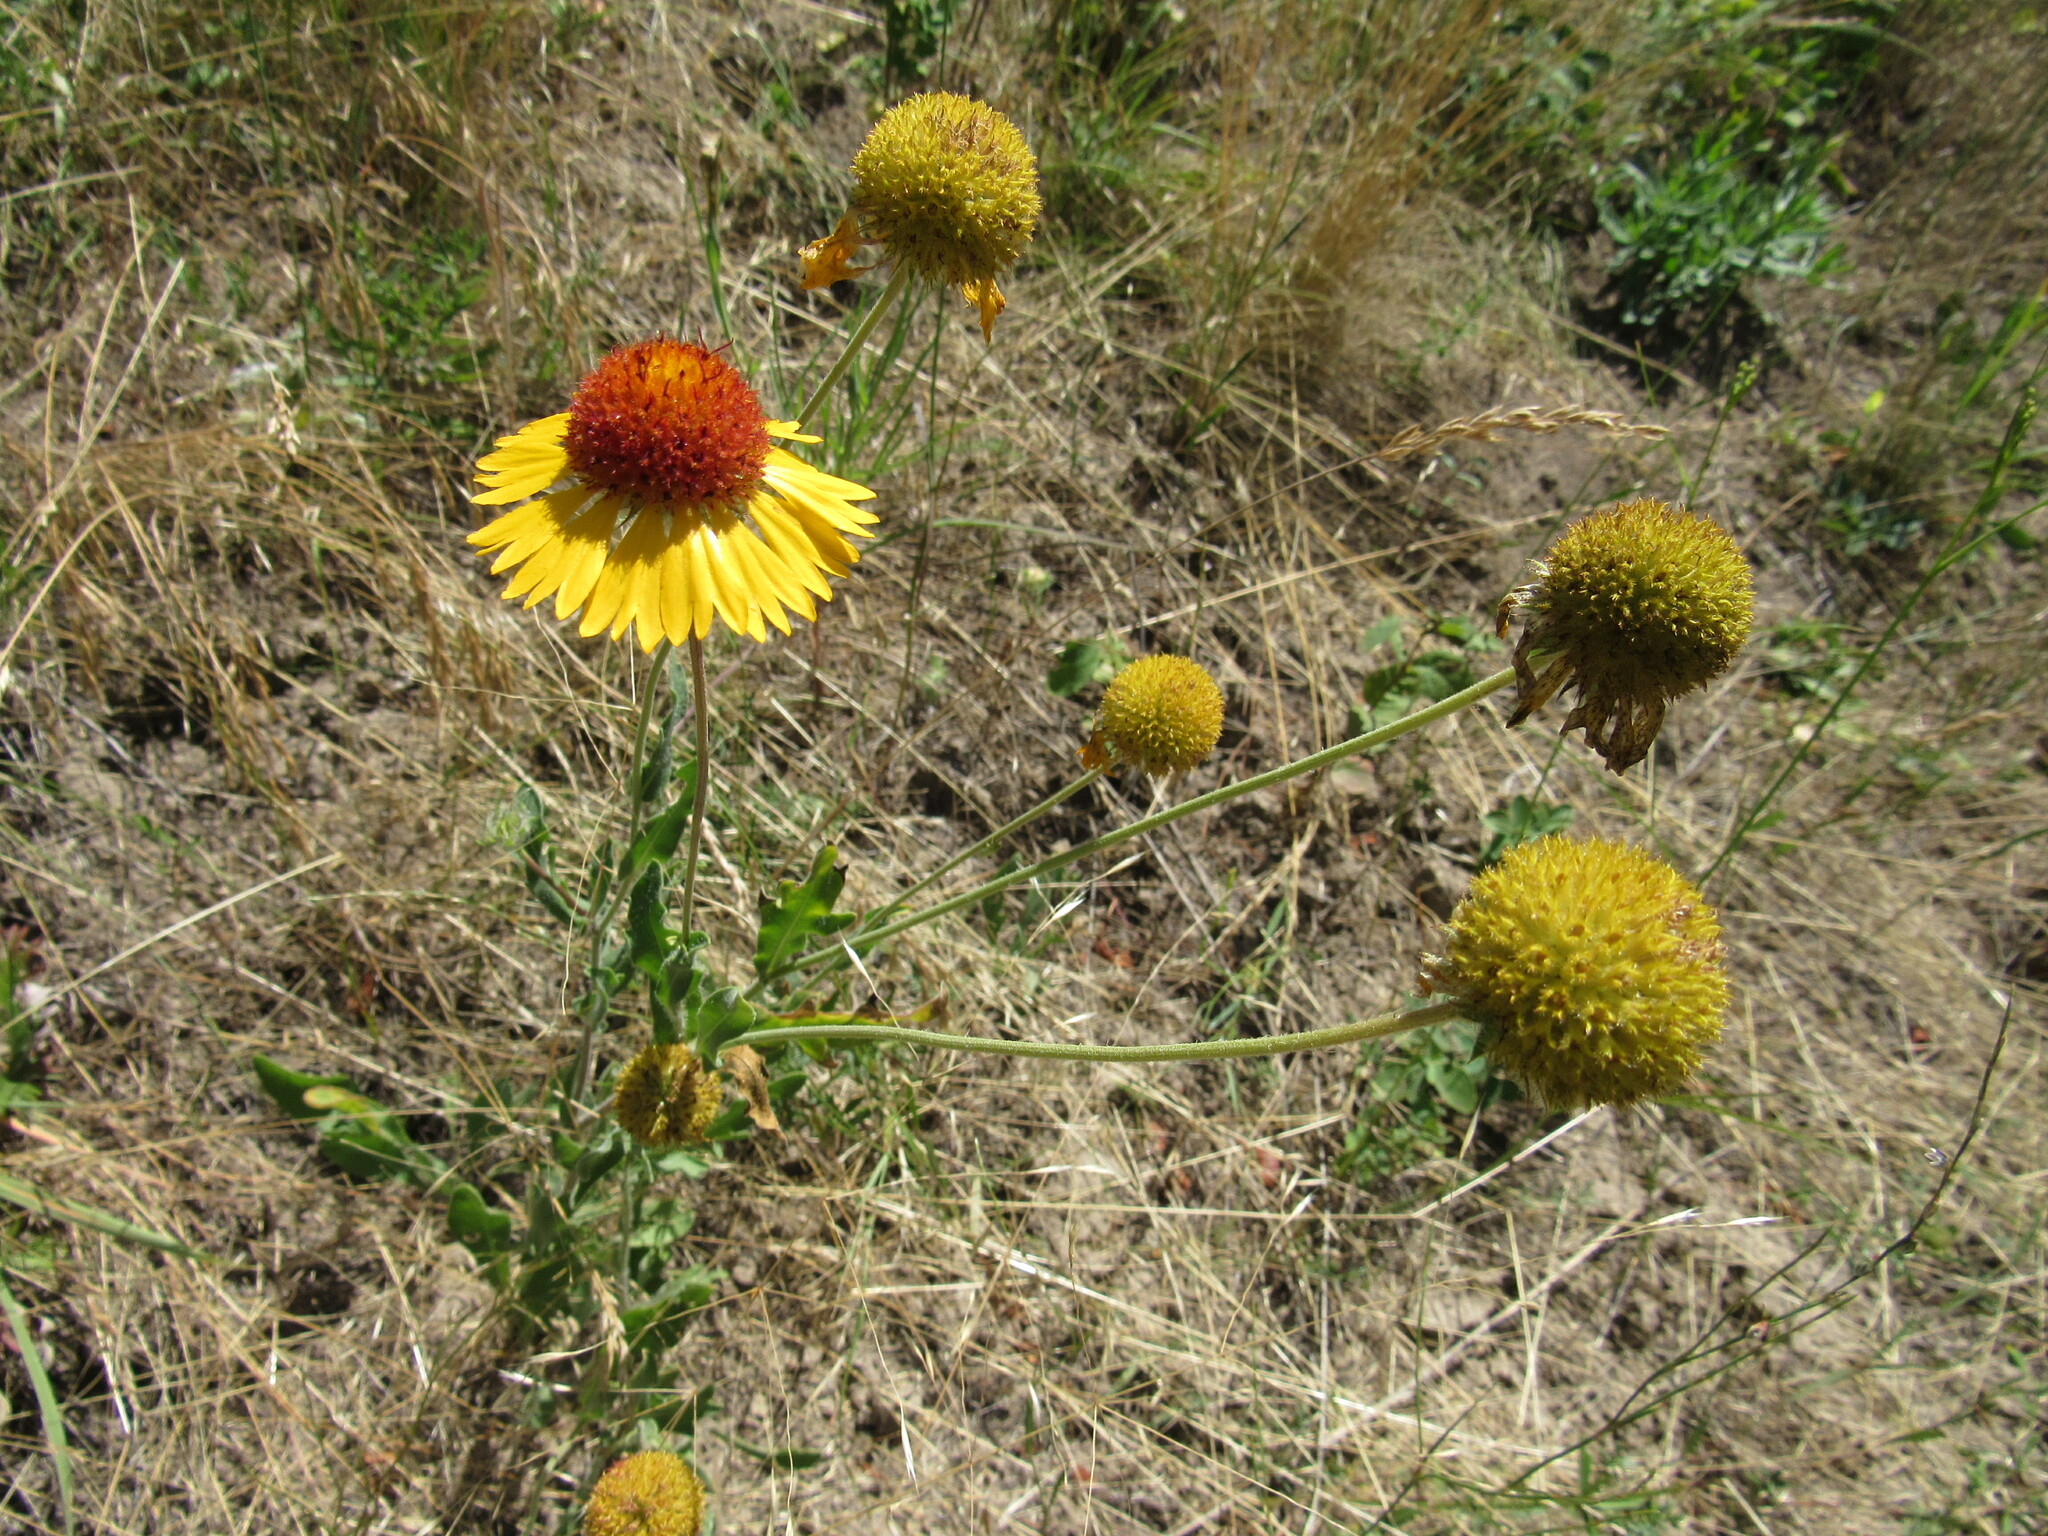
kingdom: Plantae
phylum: Tracheophyta
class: Magnoliopsida
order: Asterales
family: Asteraceae
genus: Gaillardia
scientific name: Gaillardia aristata
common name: Blanket-flower
